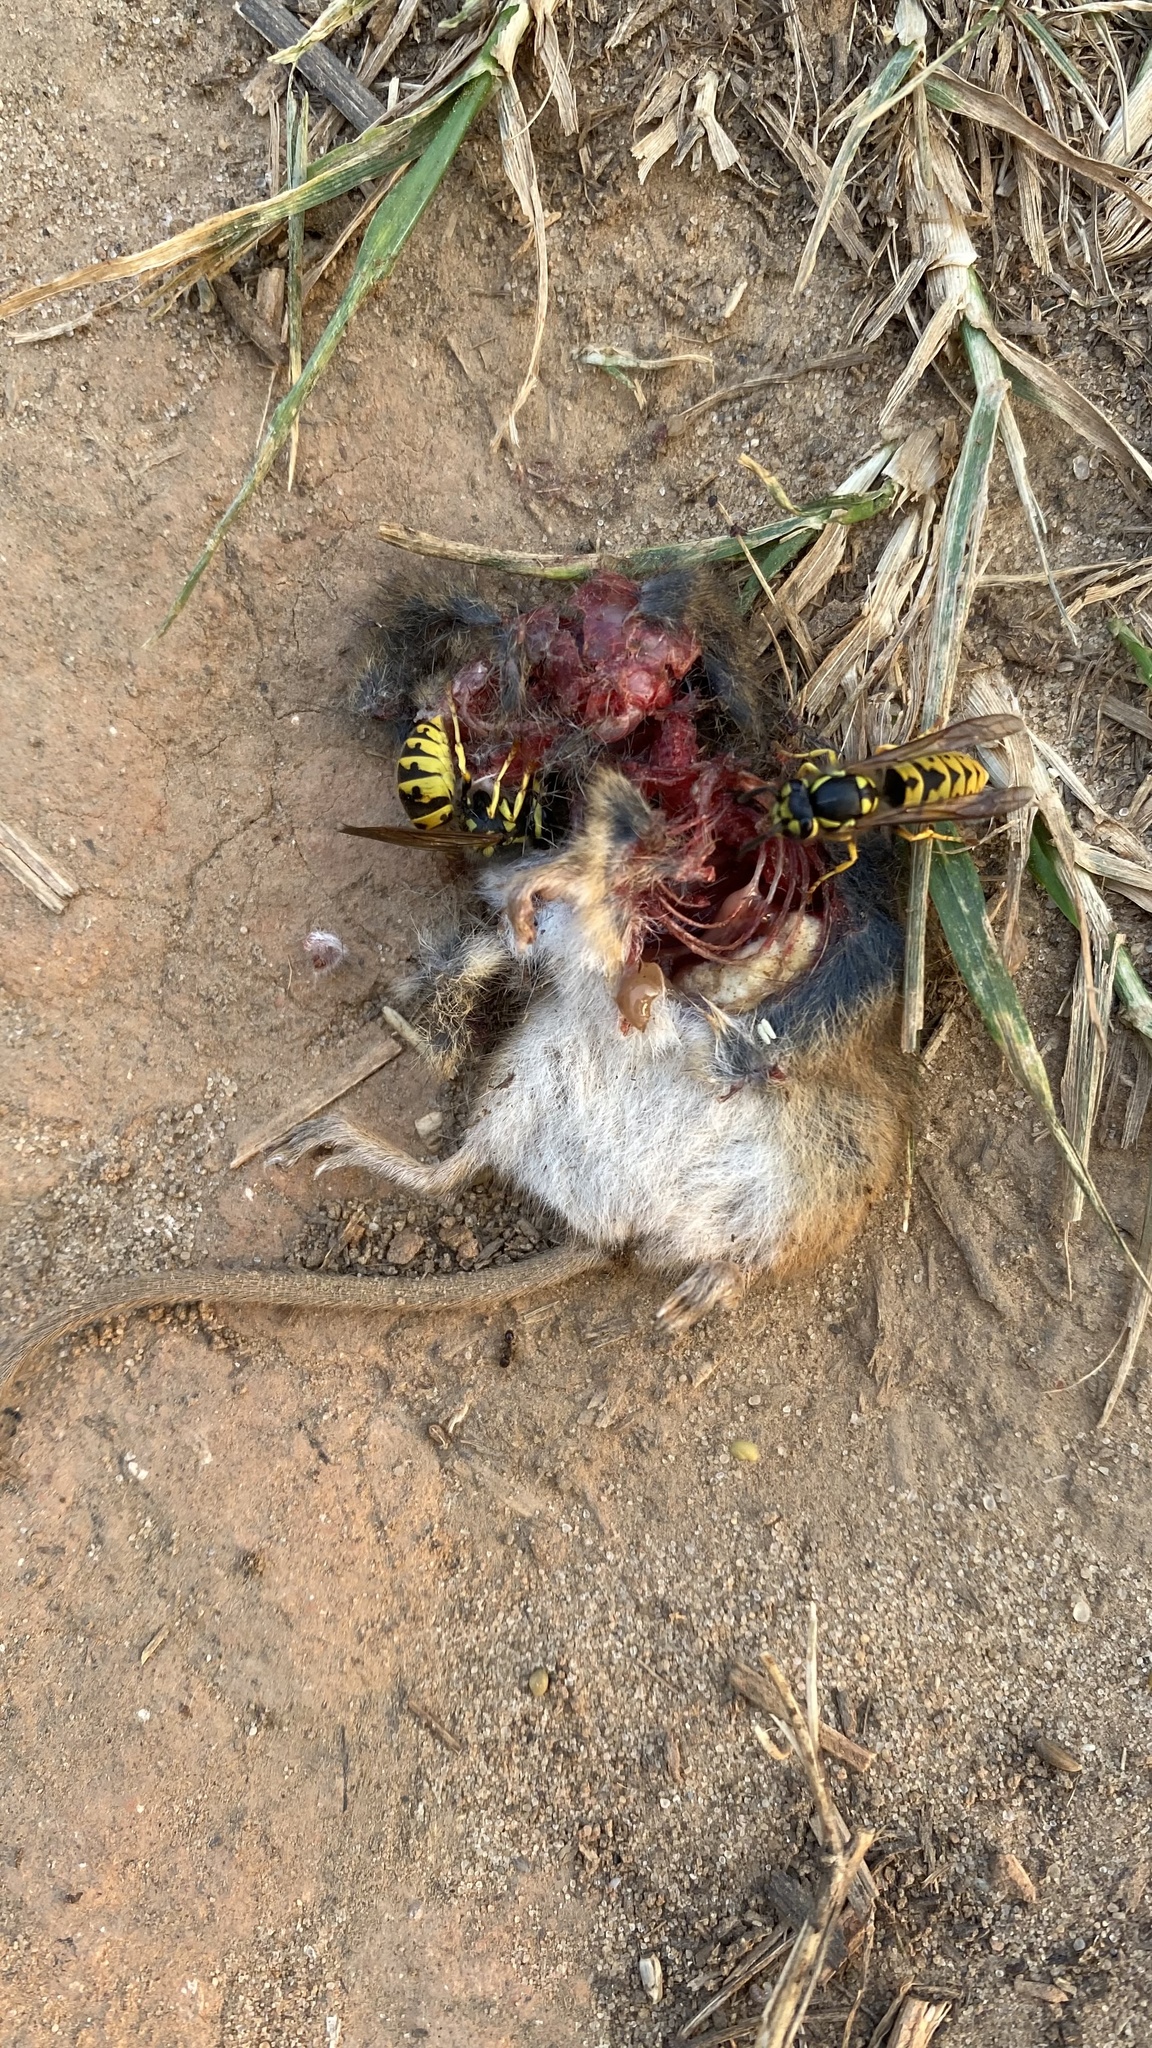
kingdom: Animalia
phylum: Chordata
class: Mammalia
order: Rodentia
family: Muridae
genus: Micromys
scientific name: Micromys minutus
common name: Harvest mouse
